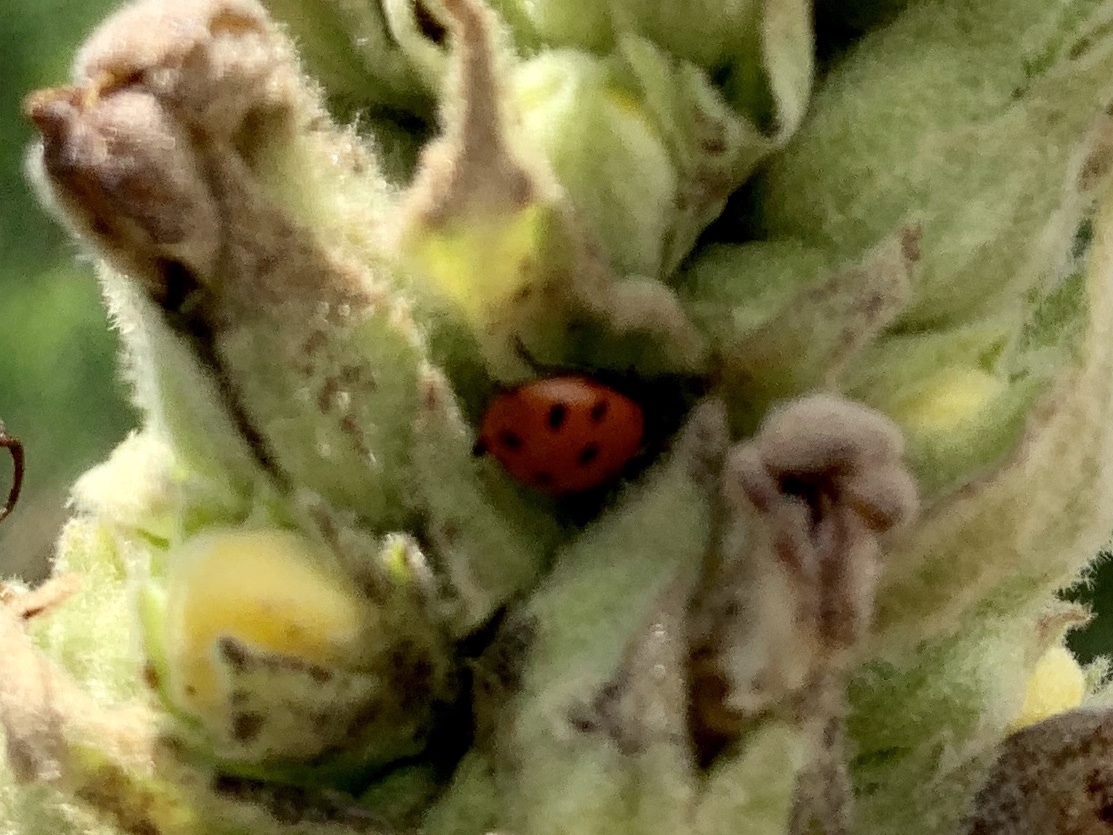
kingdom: Animalia
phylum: Arthropoda
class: Insecta
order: Coleoptera
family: Coccinellidae
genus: Hippodamia
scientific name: Hippodamia convergens
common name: Convergent lady beetle
